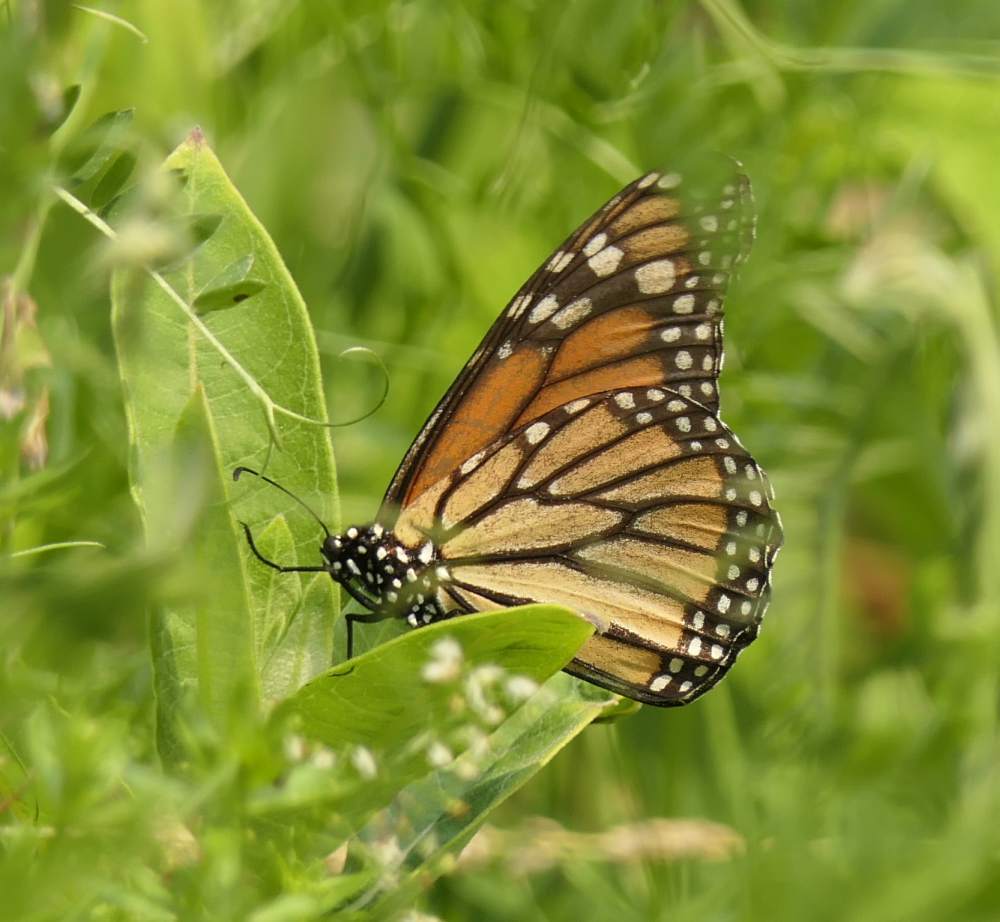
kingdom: Animalia
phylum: Arthropoda
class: Insecta
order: Lepidoptera
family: Nymphalidae
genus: Danaus
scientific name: Danaus plexippus
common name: Monarch
